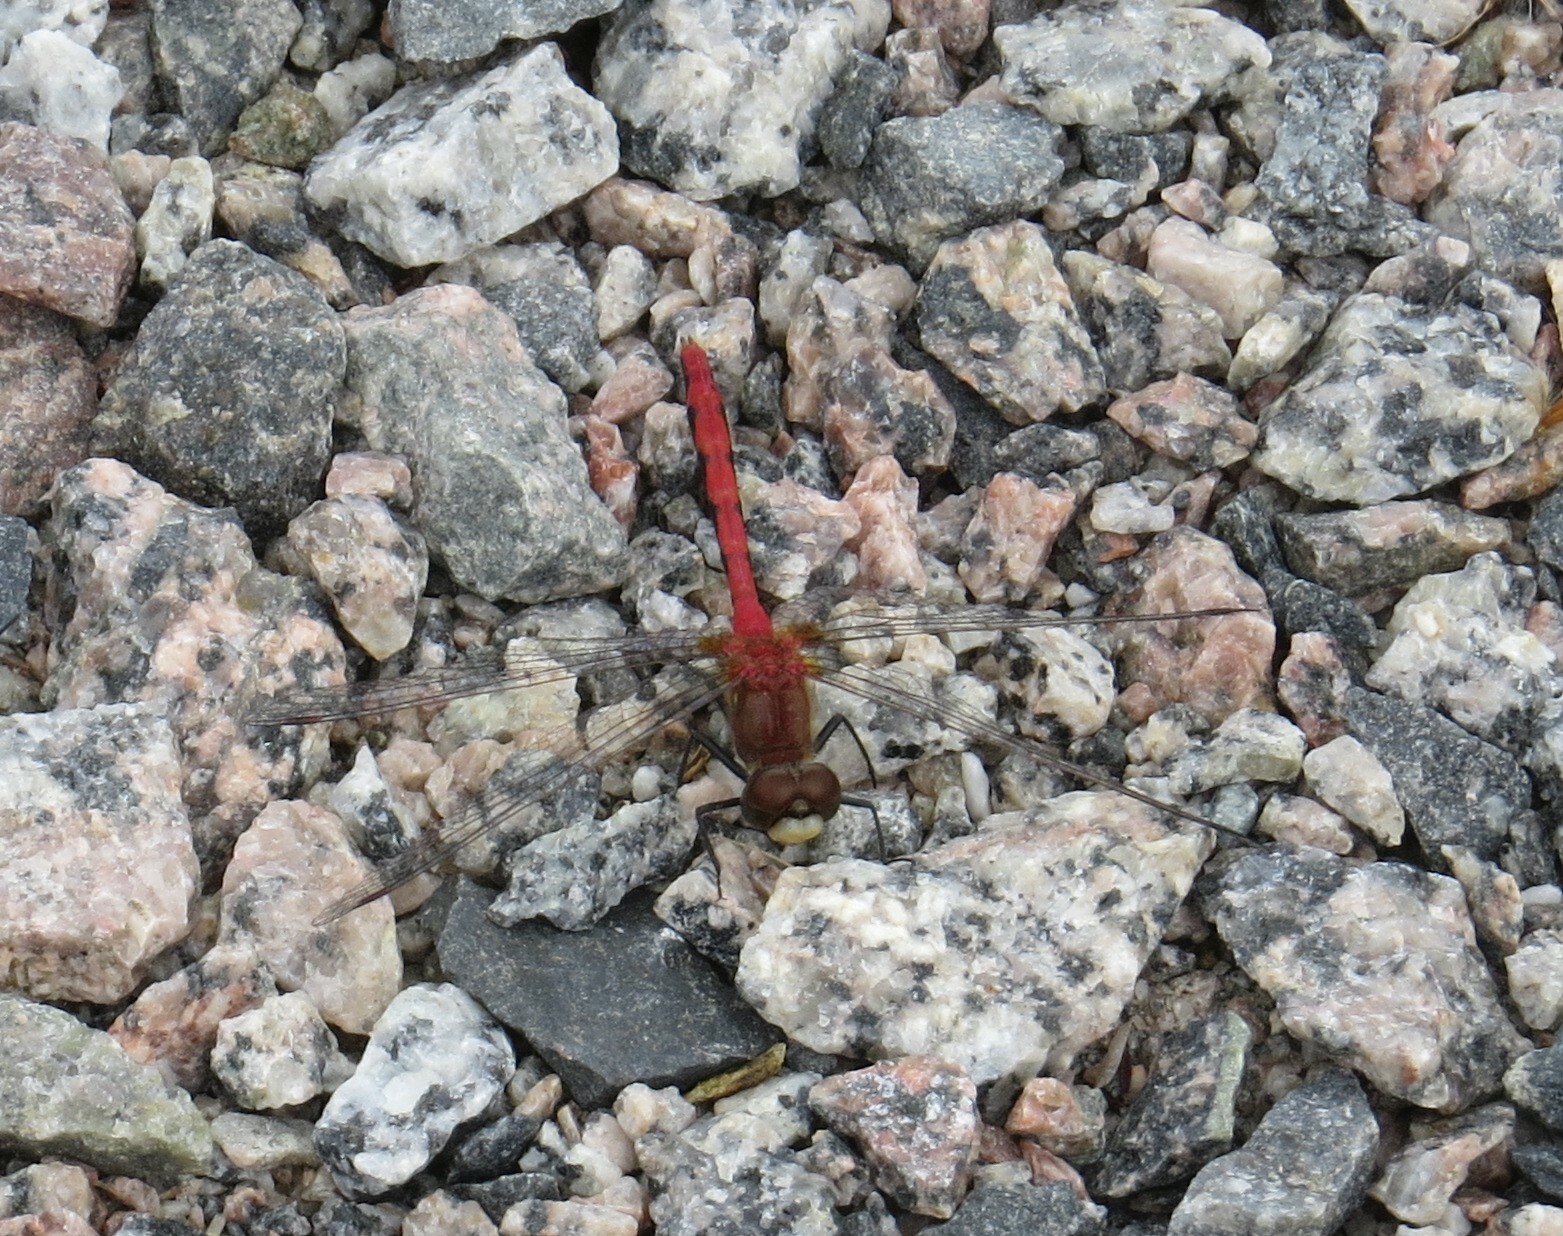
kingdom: Animalia
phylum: Arthropoda
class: Insecta
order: Odonata
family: Libellulidae
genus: Sympetrum
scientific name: Sympetrum obtrusum
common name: White-faced meadowhawk
